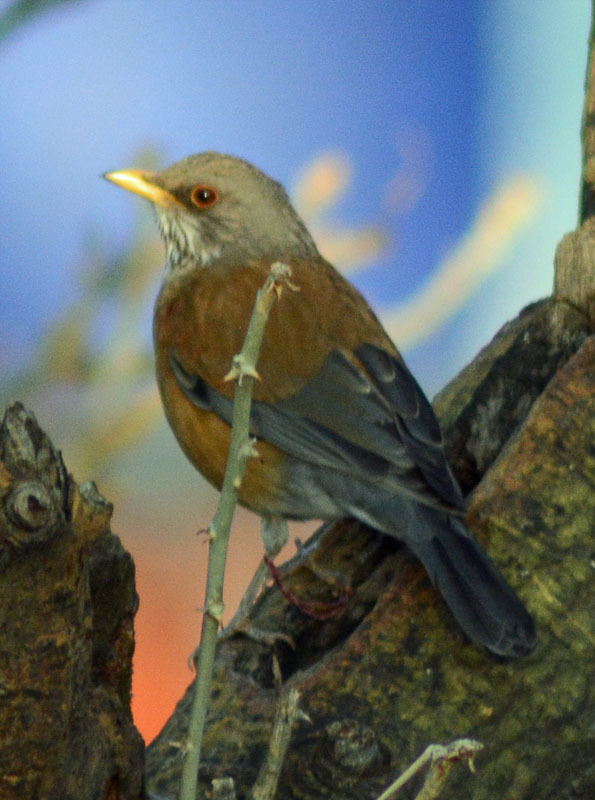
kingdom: Animalia
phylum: Chordata
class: Aves
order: Passeriformes
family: Turdidae
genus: Turdus
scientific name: Turdus rufopalliatus
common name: Rufous-backed robin
